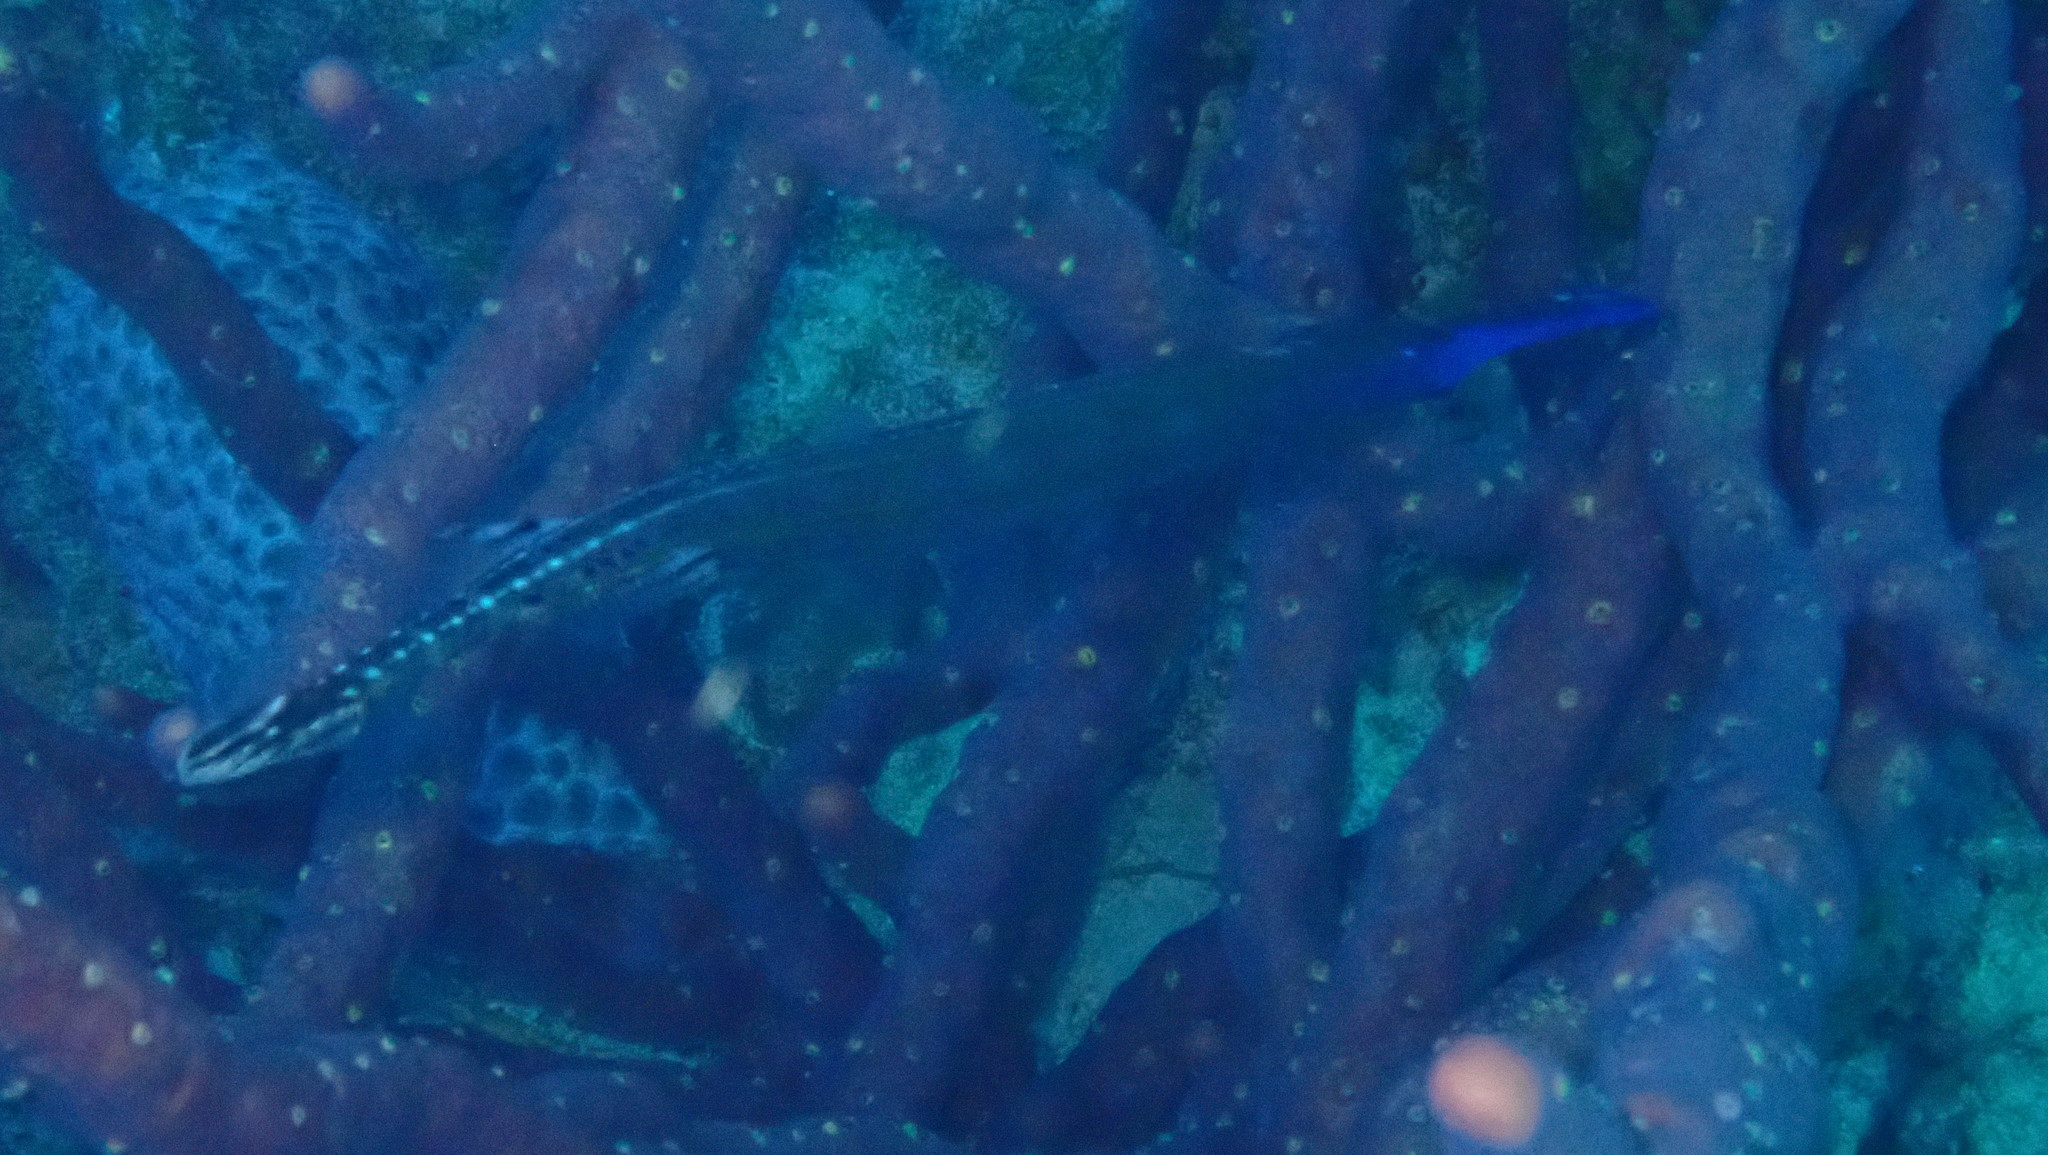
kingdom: Animalia
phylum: Chordata
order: Syngnathiformes
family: Aulostomidae
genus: Aulostomus
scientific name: Aulostomus maculatus
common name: West atlantic trumpetfish
